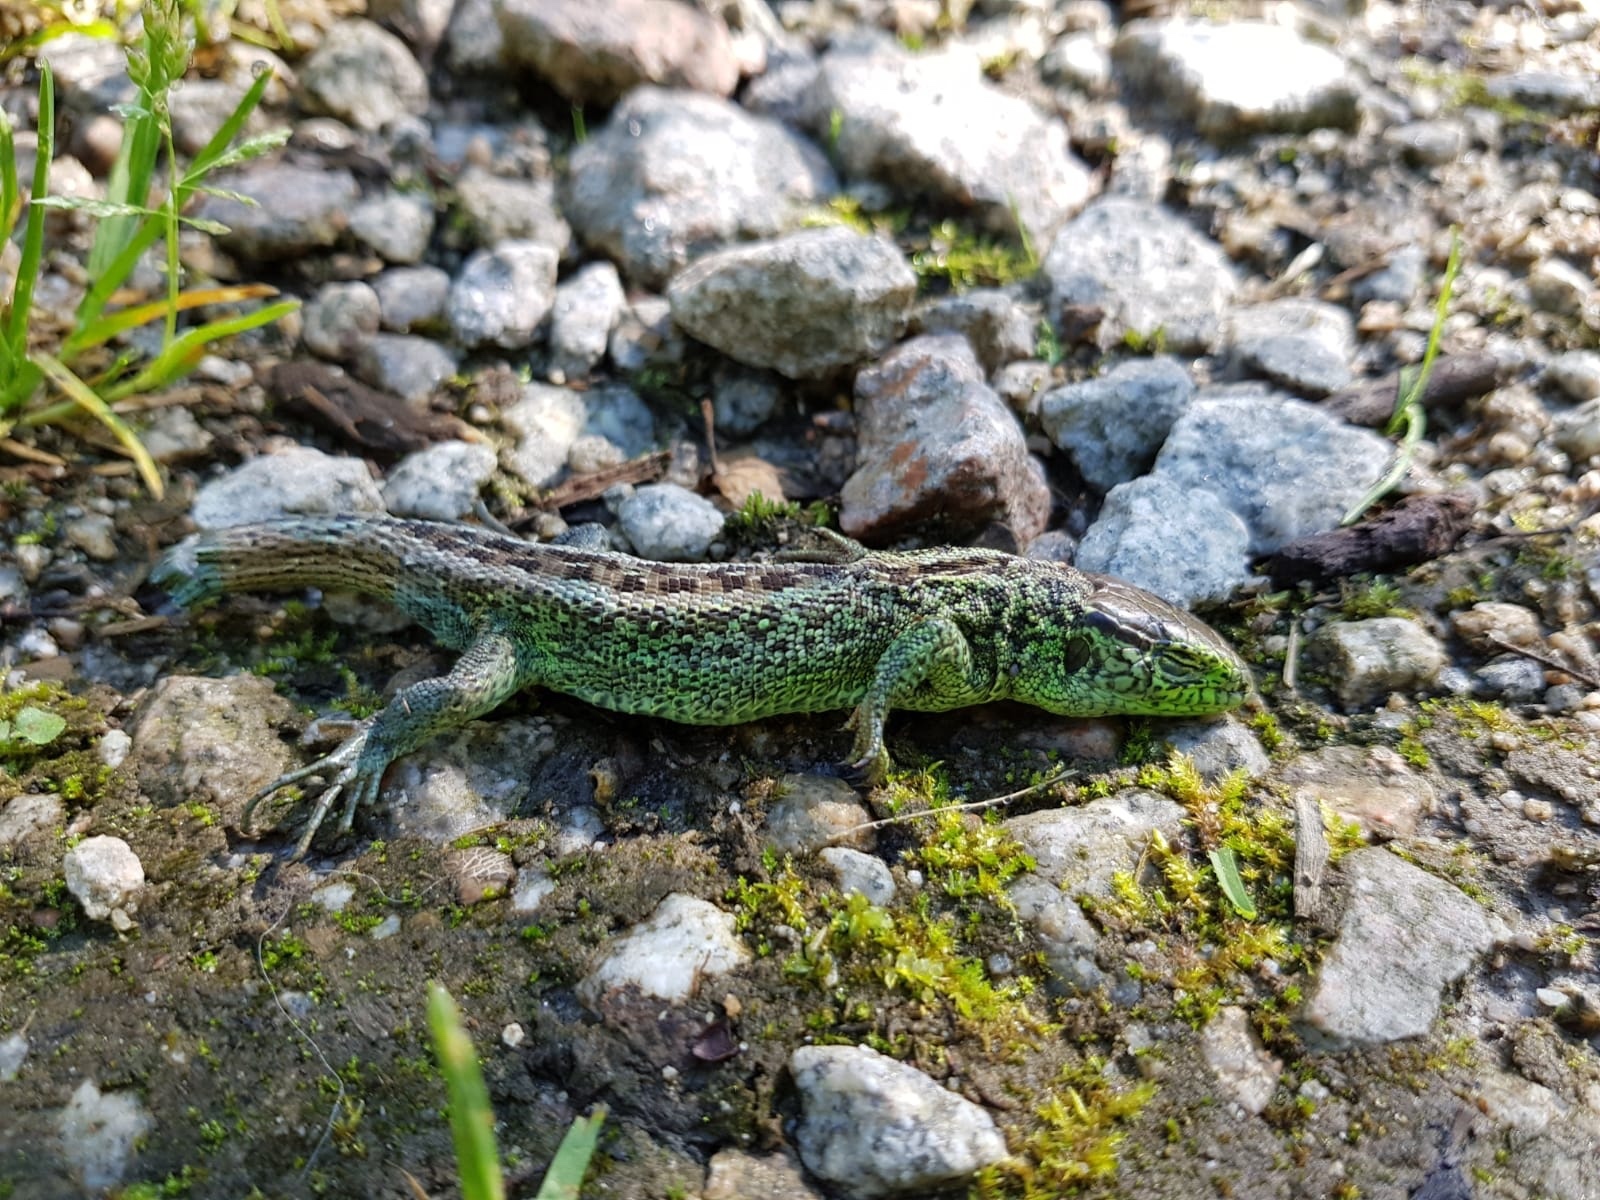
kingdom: Animalia
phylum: Chordata
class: Squamata
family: Lacertidae
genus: Lacerta
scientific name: Lacerta agilis
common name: Sand lizard
